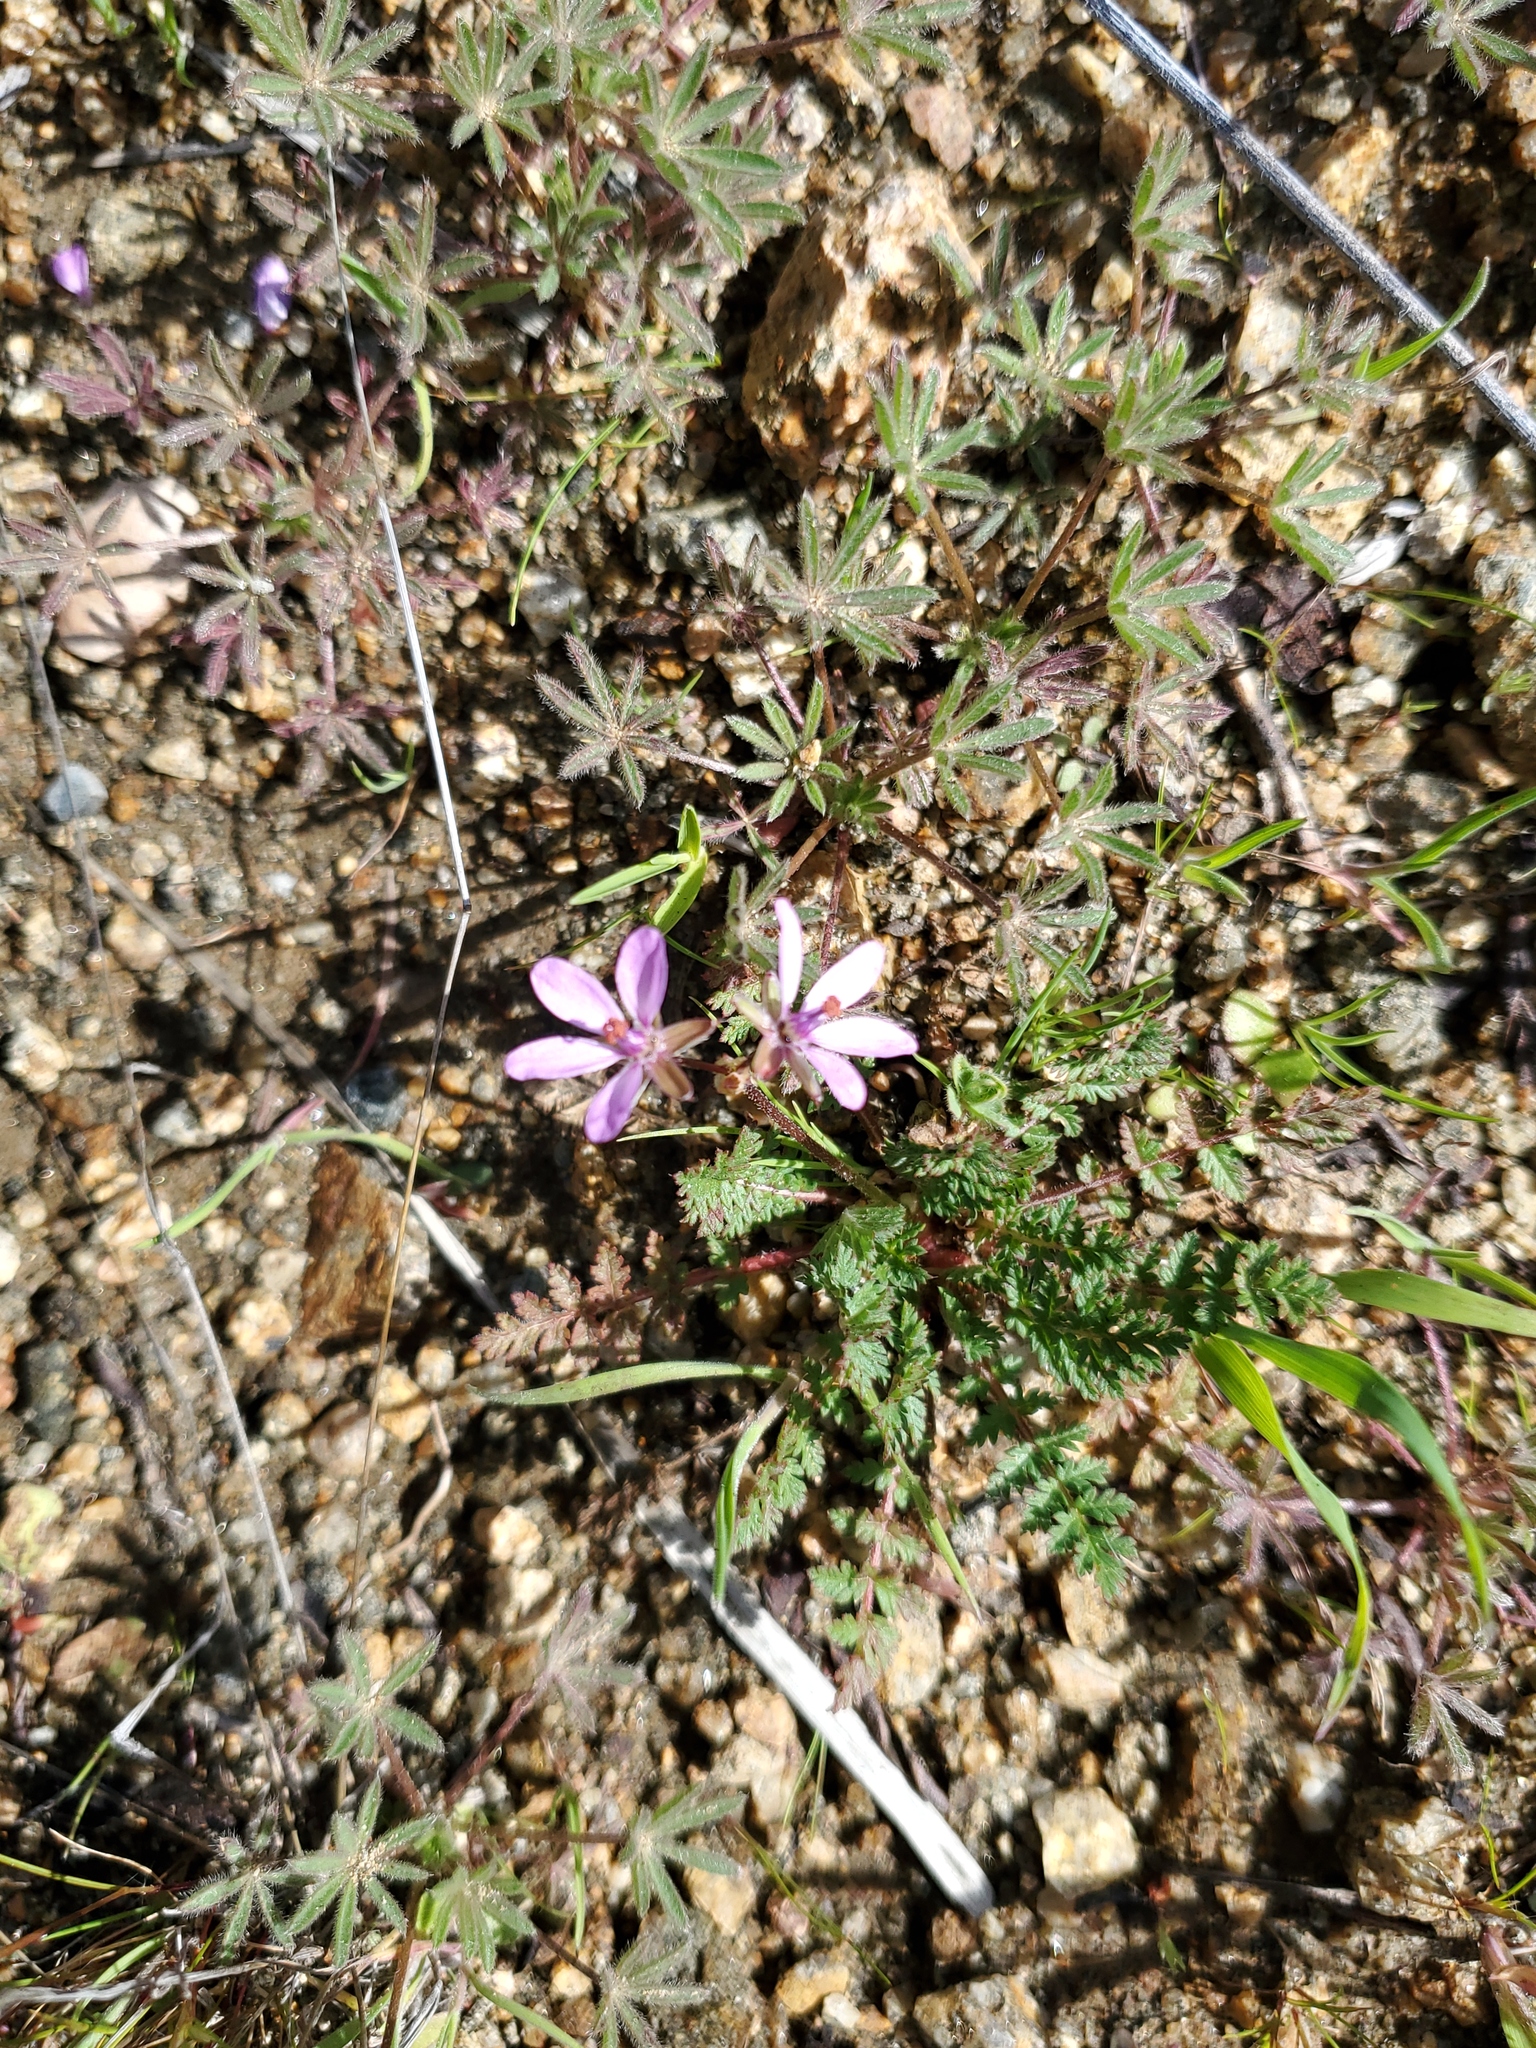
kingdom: Plantae
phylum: Tracheophyta
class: Magnoliopsida
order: Geraniales
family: Geraniaceae
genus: Erodium
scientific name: Erodium cicutarium
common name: Common stork's-bill
